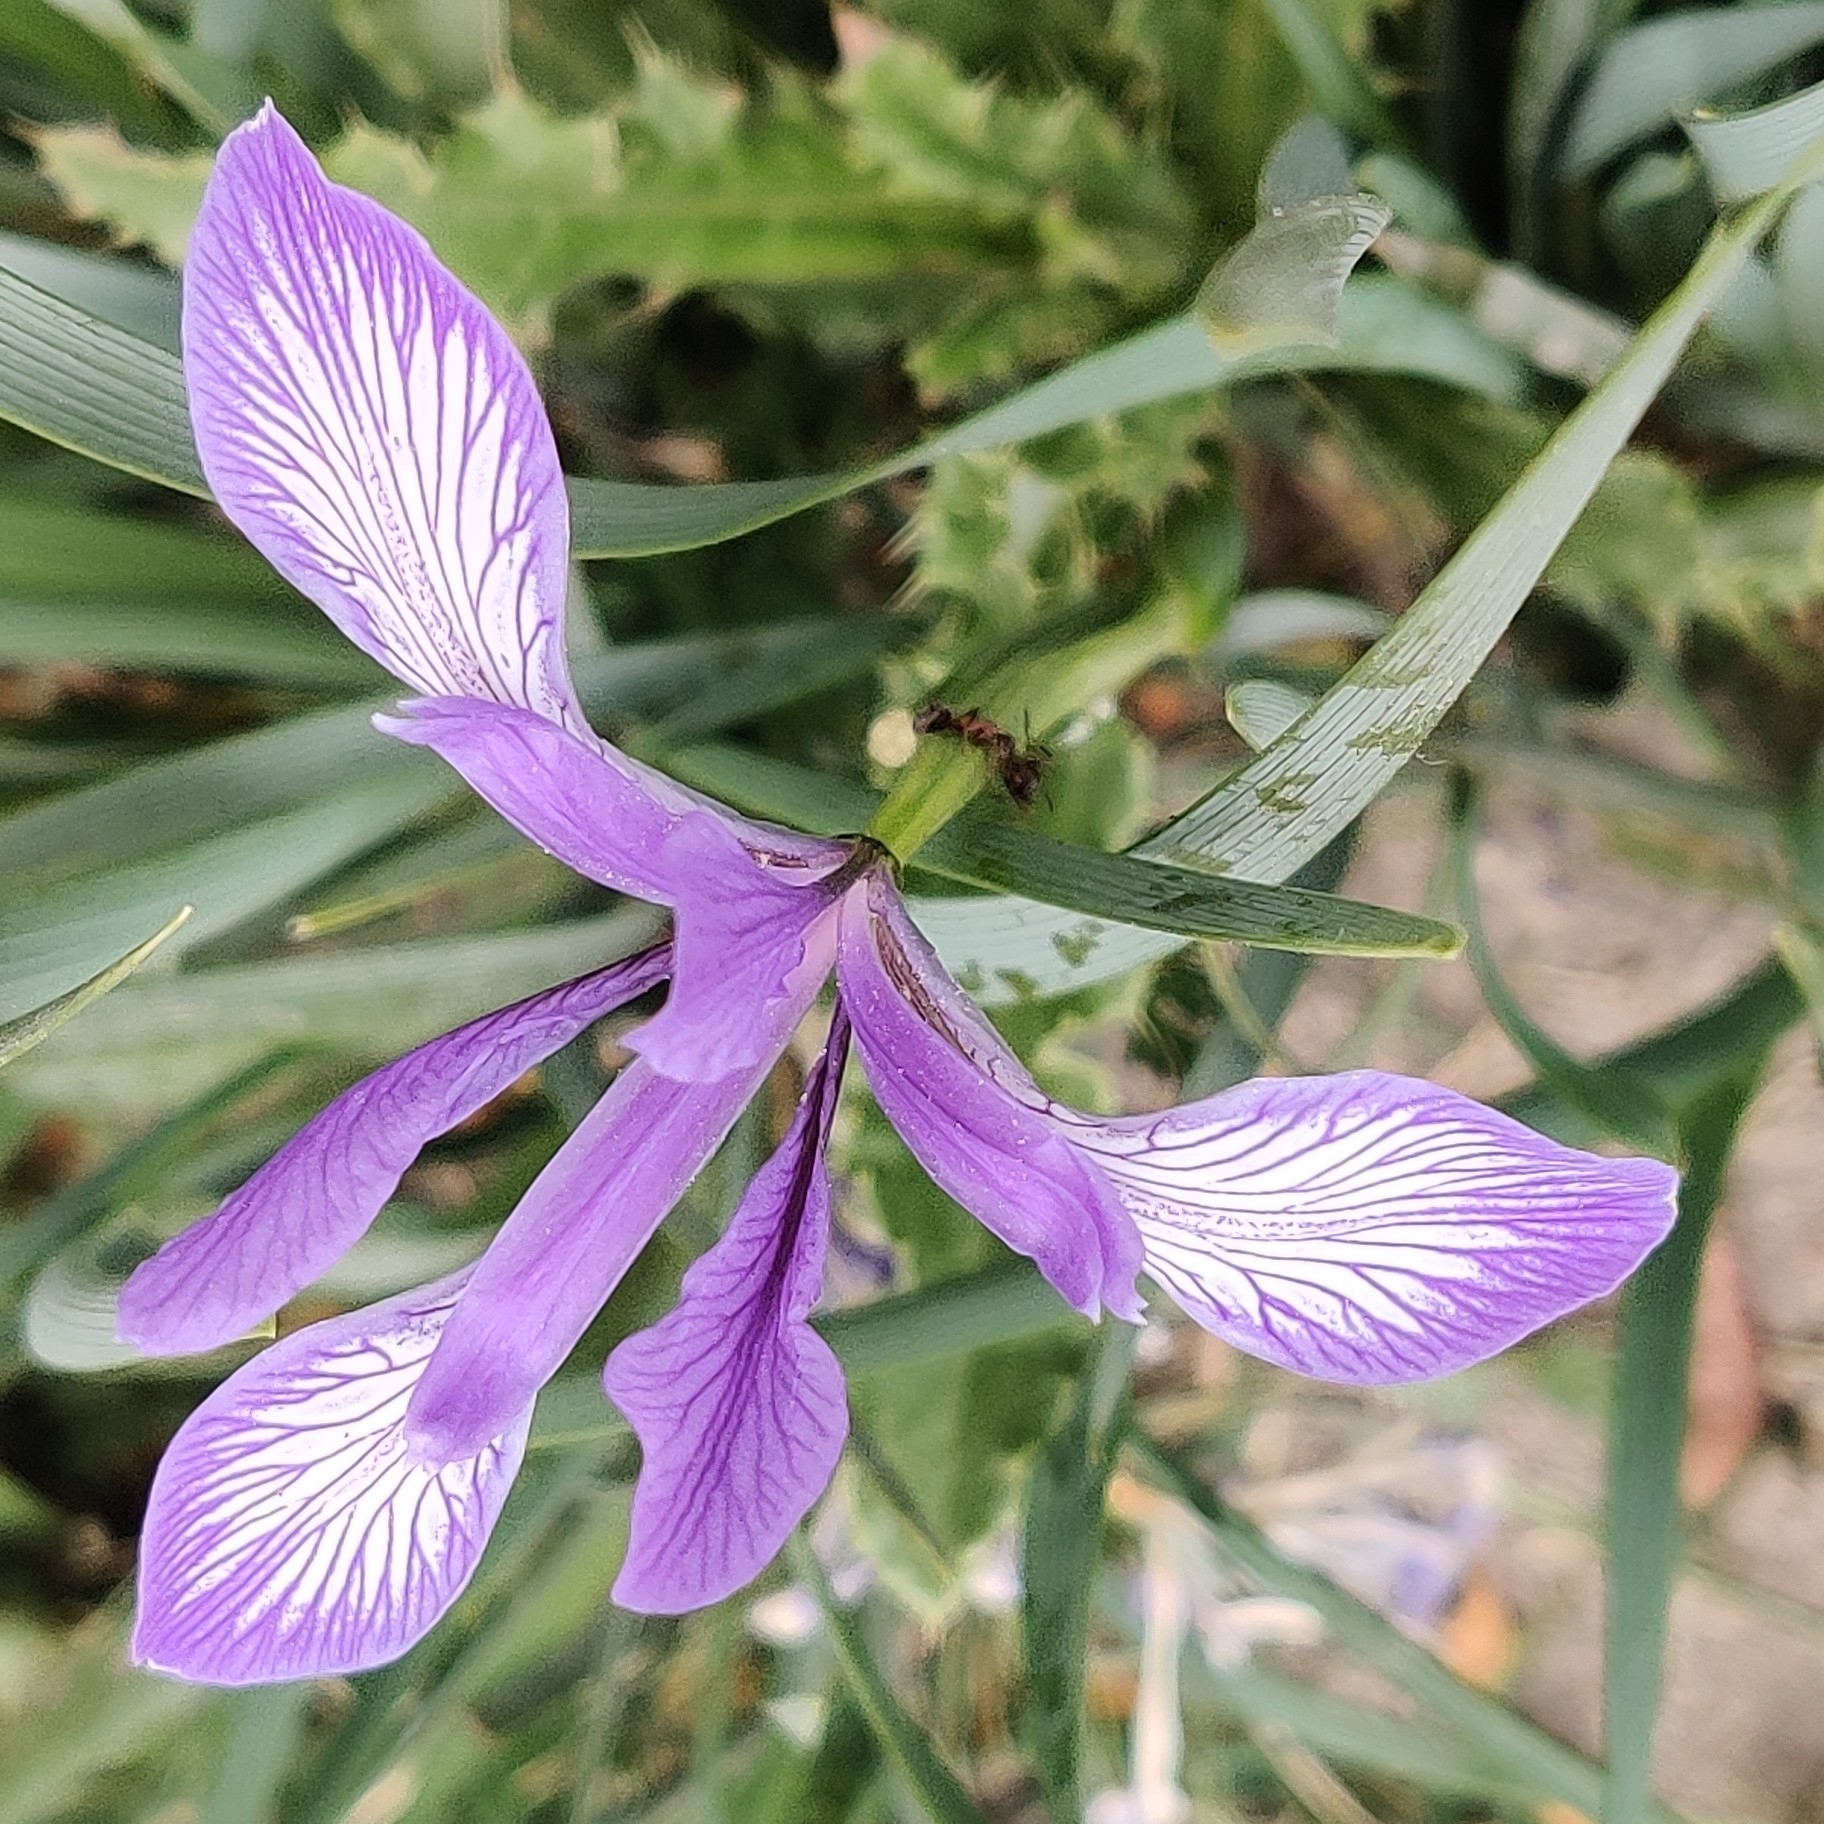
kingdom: Plantae
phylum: Tracheophyta
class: Liliopsida
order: Asparagales
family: Iridaceae
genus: Iris
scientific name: Iris lactea
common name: White-flower chinese iris
